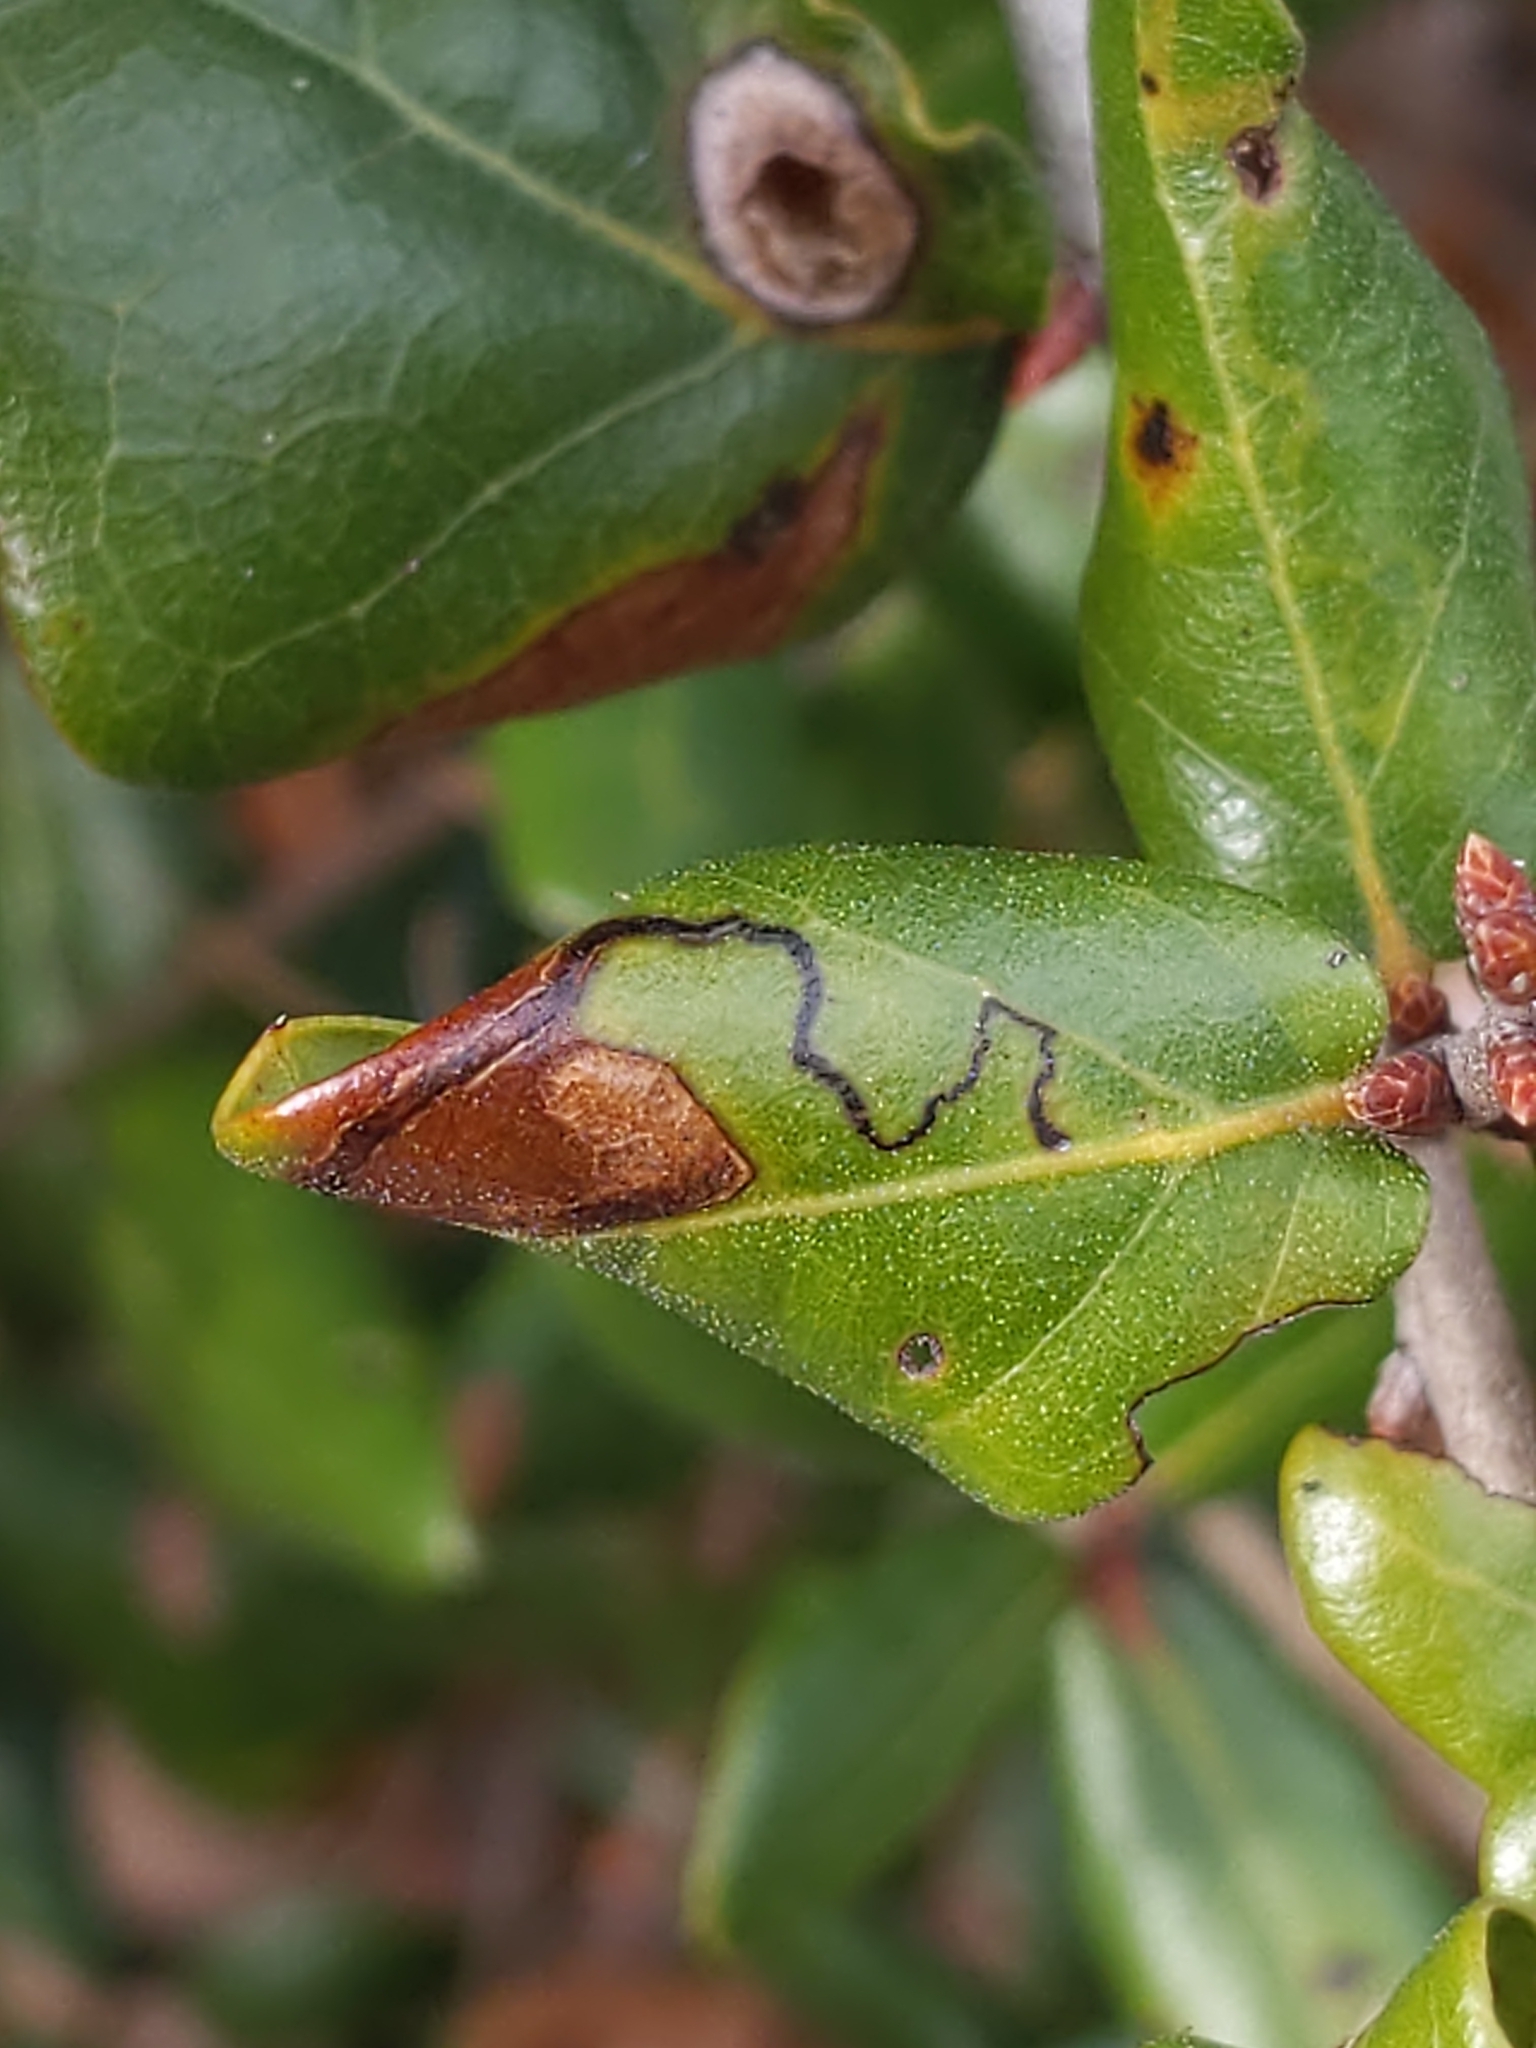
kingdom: Plantae
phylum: Tracheophyta
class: Magnoliopsida
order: Fagales
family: Fagaceae
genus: Quercus
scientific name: Quercus myrtifolia
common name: Myrtle oak
